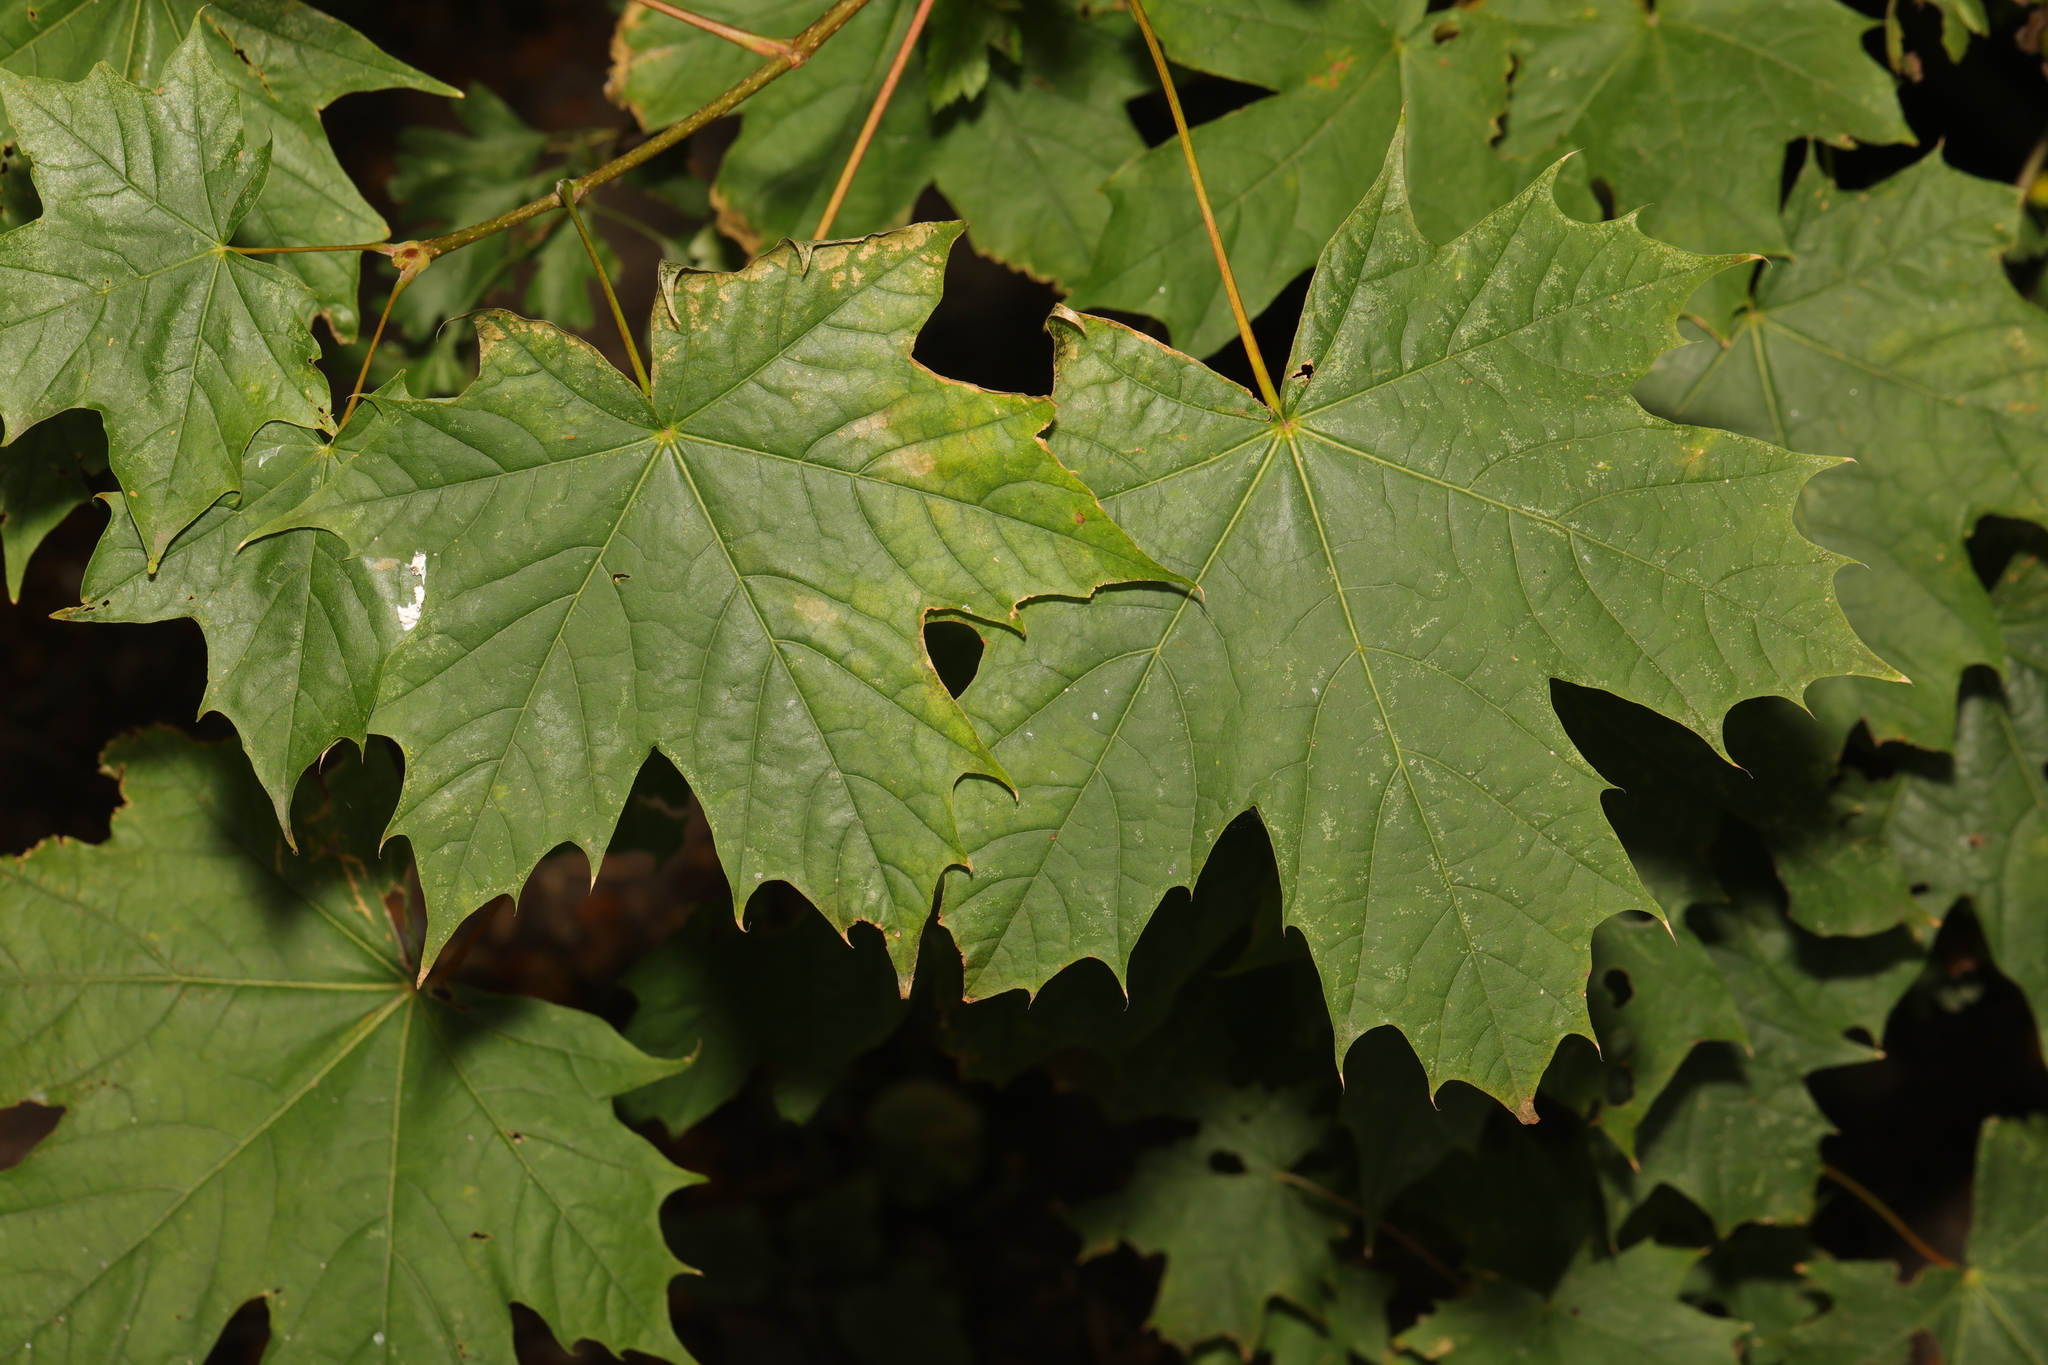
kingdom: Plantae
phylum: Tracheophyta
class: Magnoliopsida
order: Sapindales
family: Sapindaceae
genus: Acer
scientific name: Acer platanoides
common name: Norway maple
